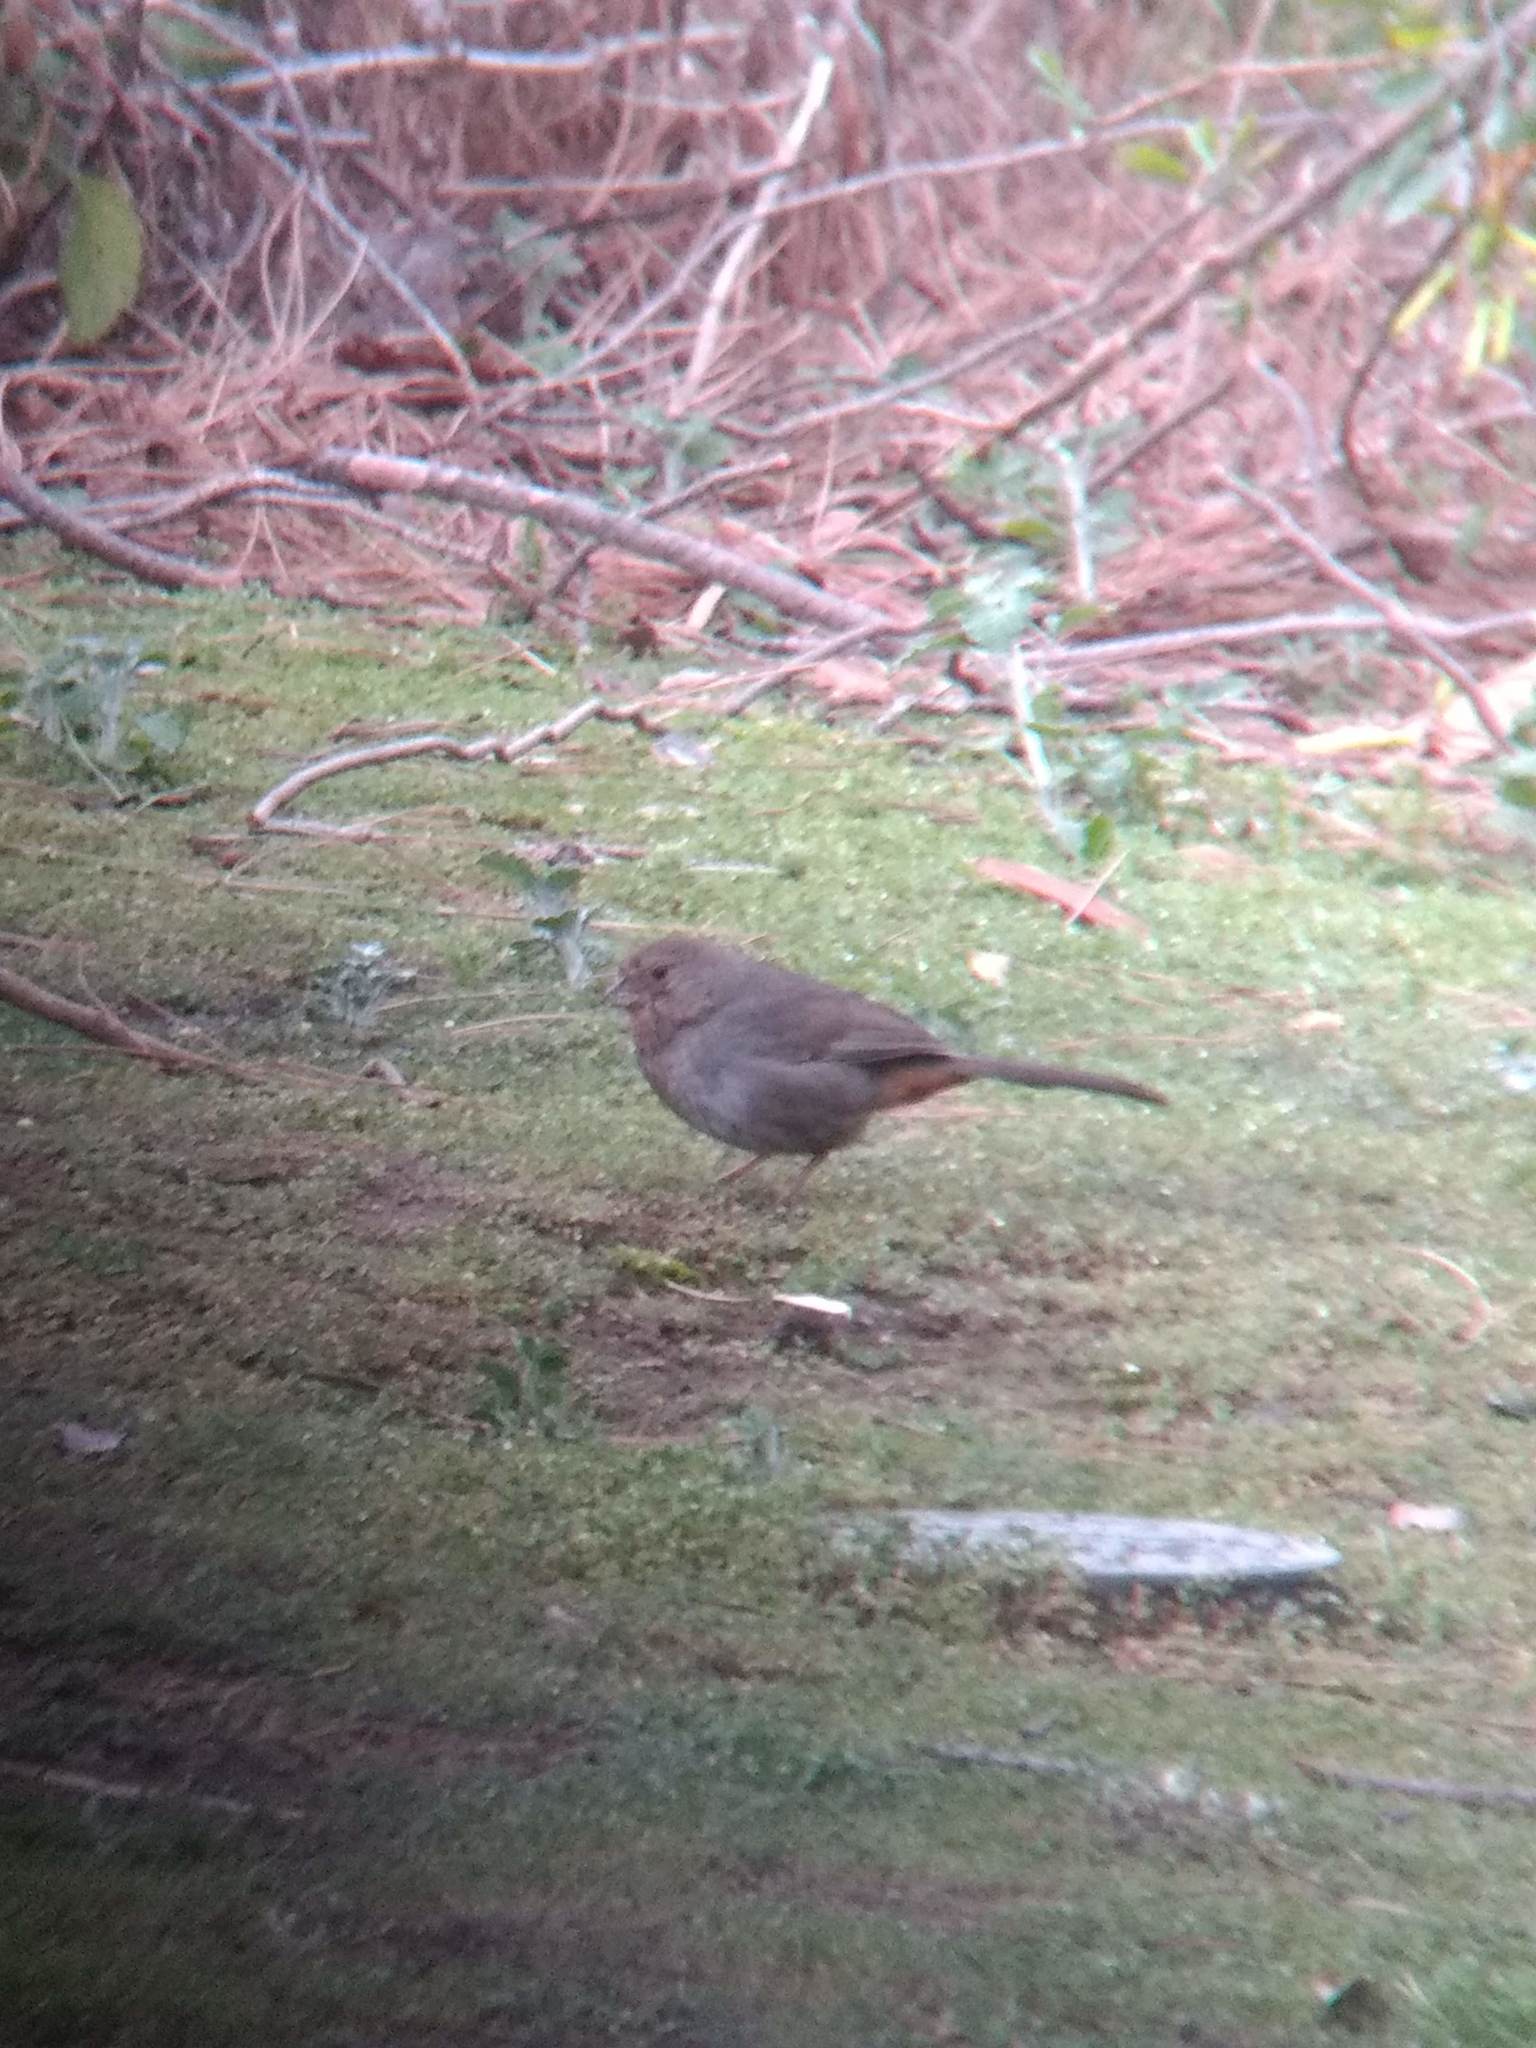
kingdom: Animalia
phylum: Chordata
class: Aves
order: Passeriformes
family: Passerellidae
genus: Melozone
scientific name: Melozone crissalis
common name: California towhee
